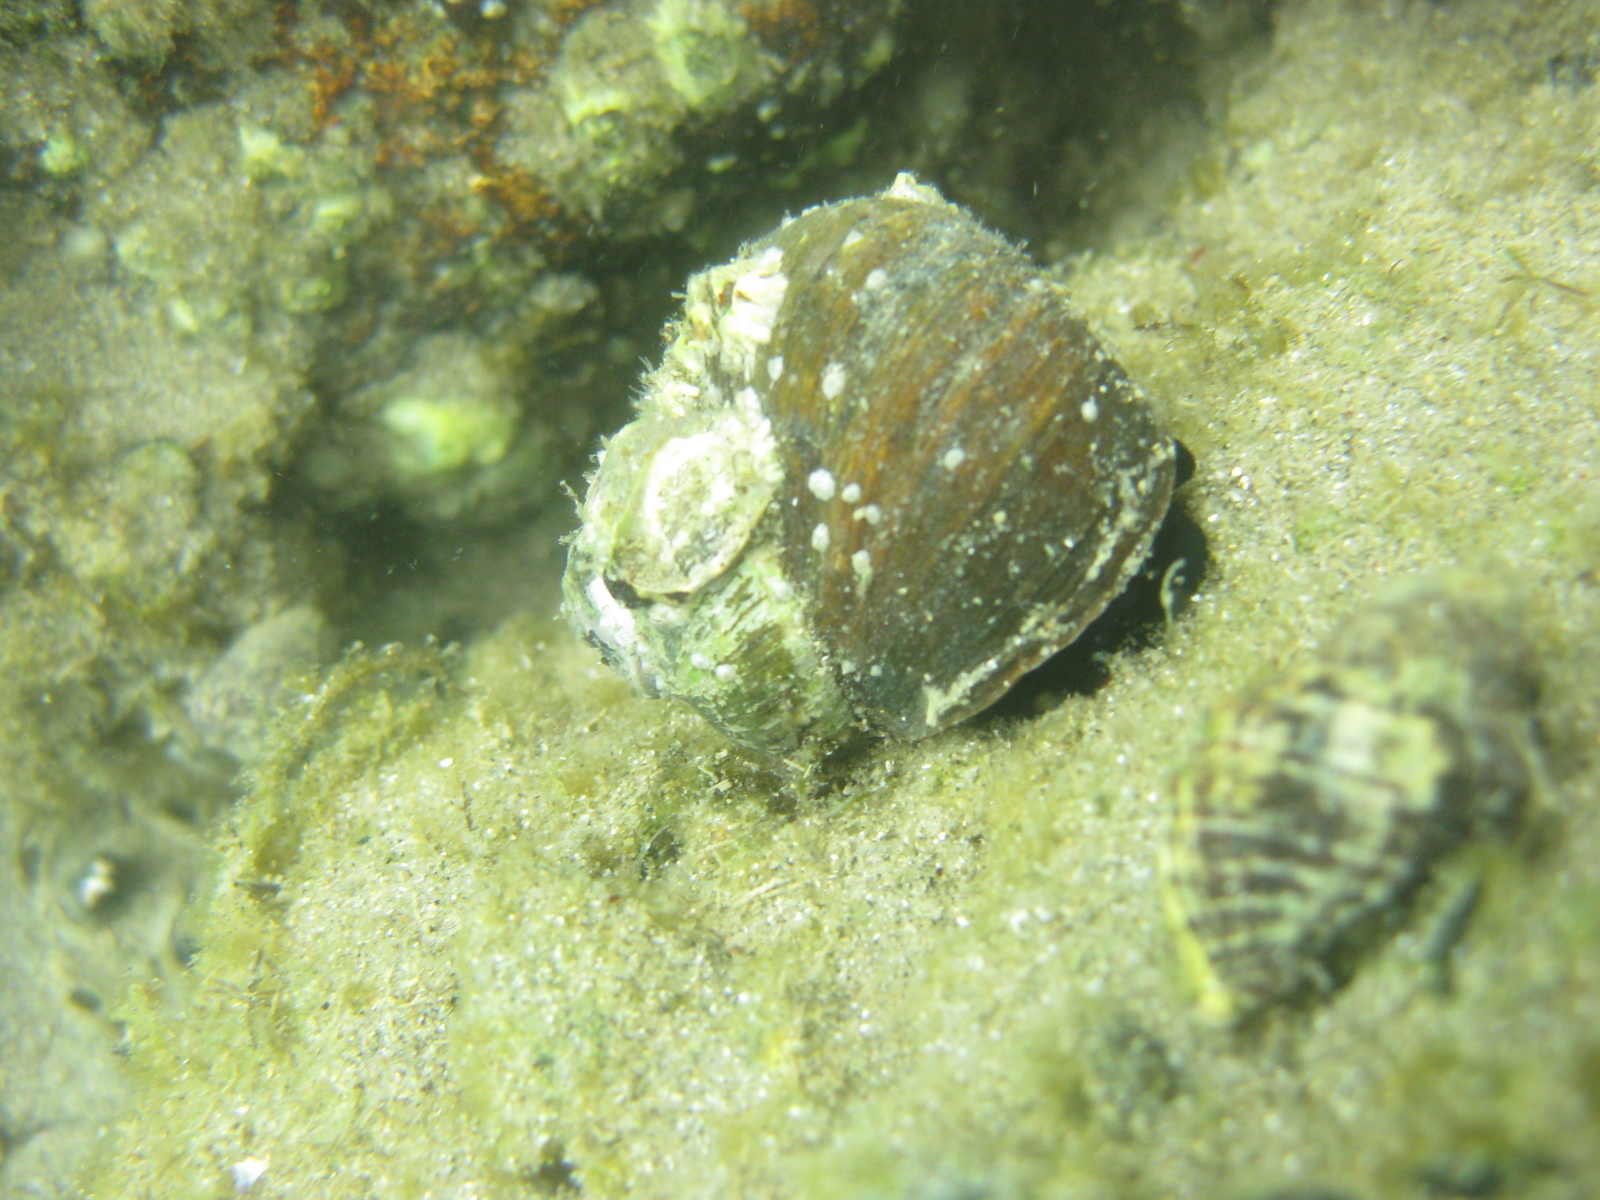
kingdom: Animalia
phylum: Mollusca
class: Gastropoda
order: Trochida
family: Turbinidae
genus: Lunella
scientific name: Lunella smaragda
